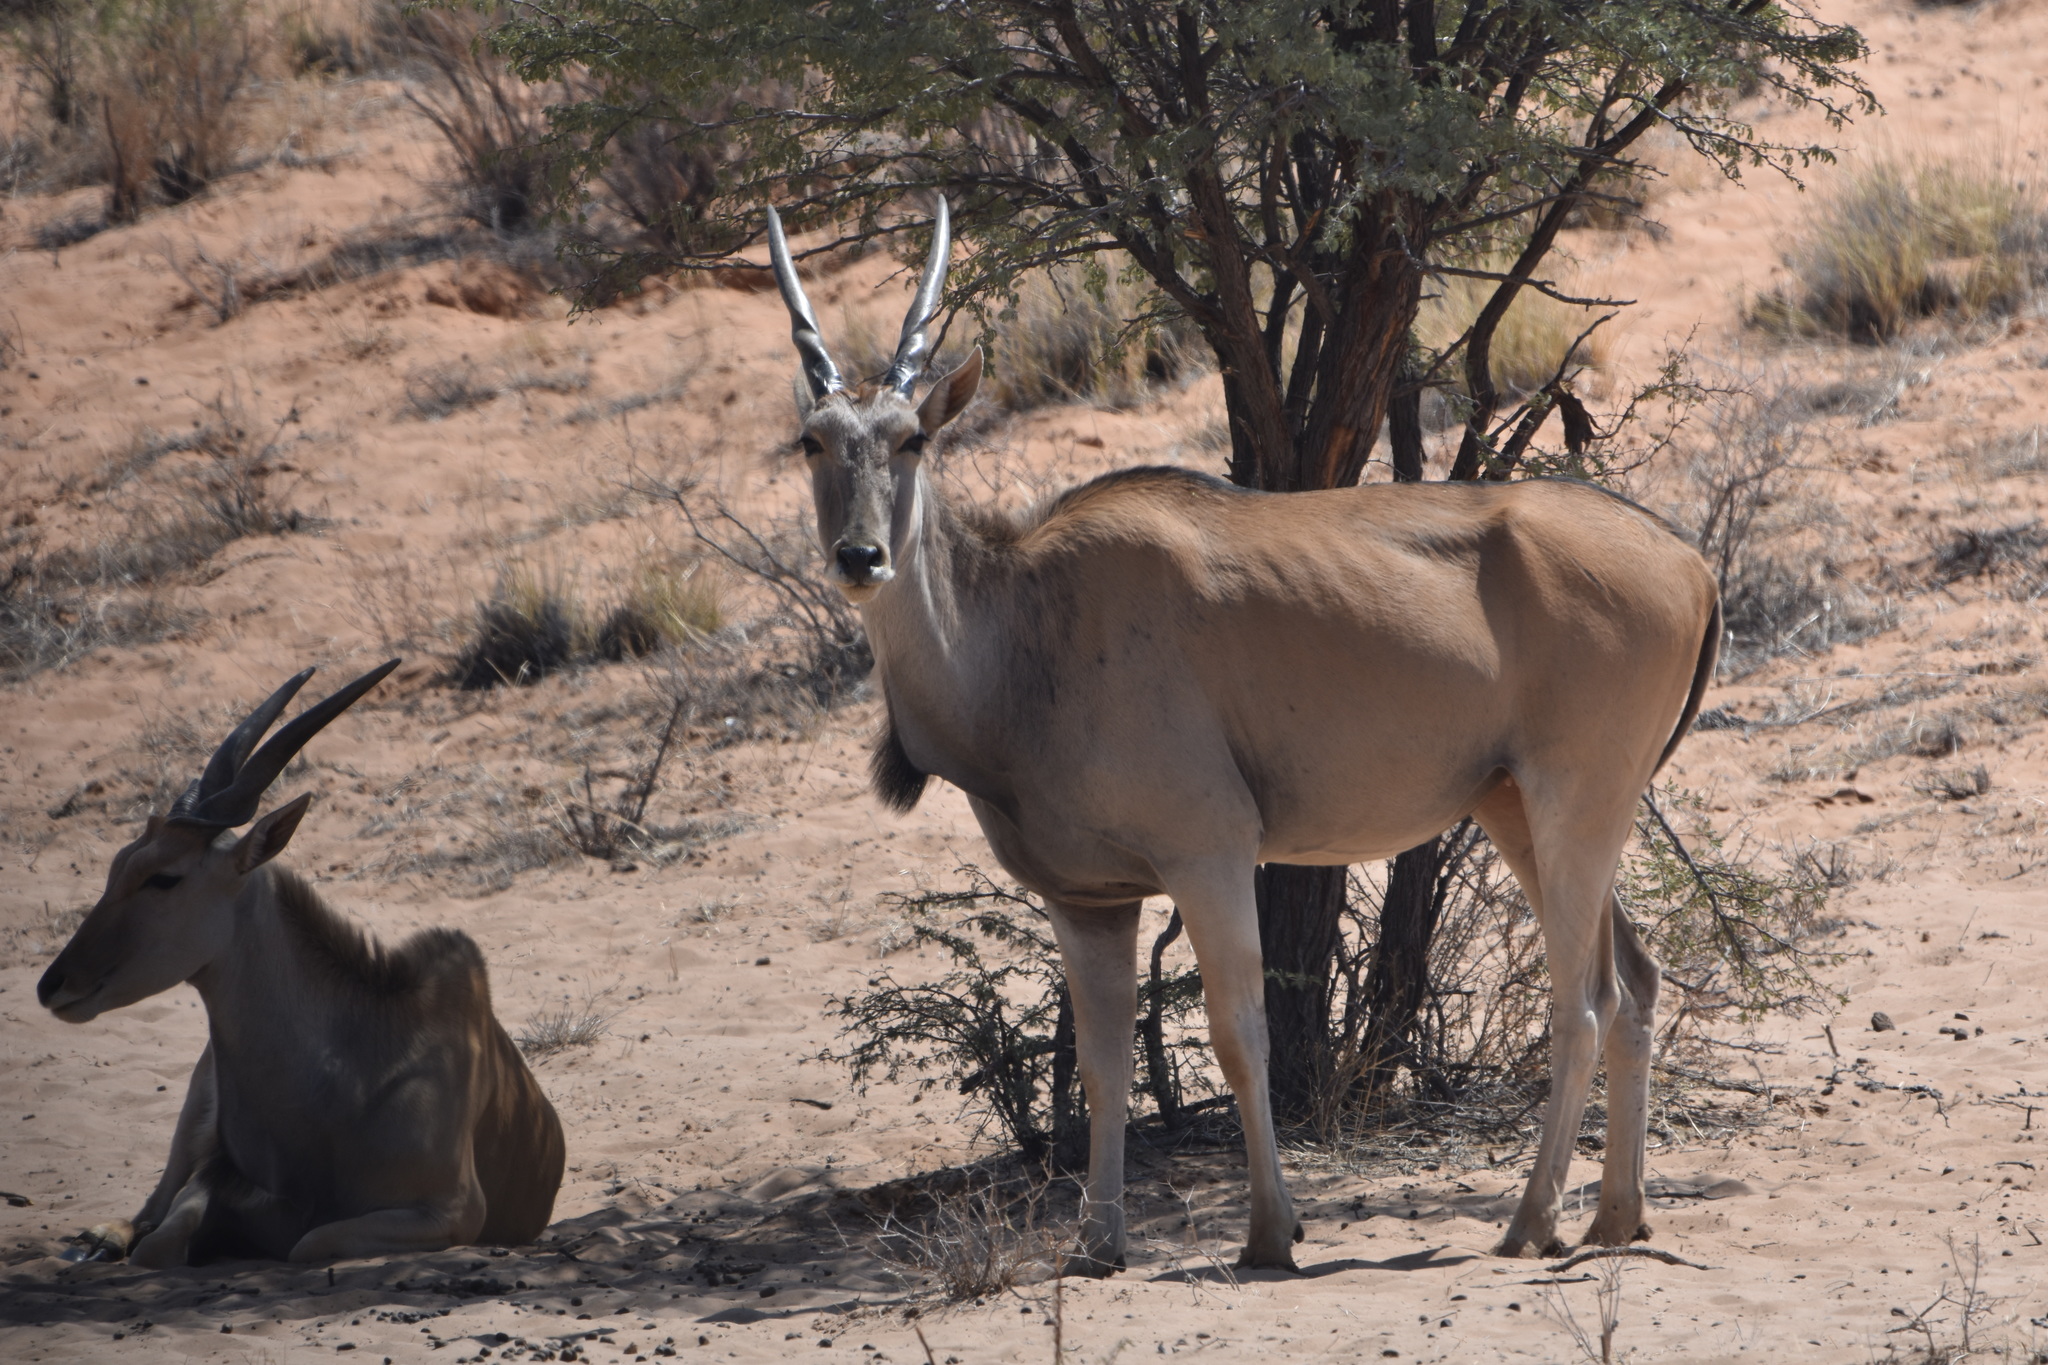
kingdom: Animalia
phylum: Chordata
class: Mammalia
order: Artiodactyla
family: Bovidae
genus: Taurotragus
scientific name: Taurotragus oryx
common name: Common eland
